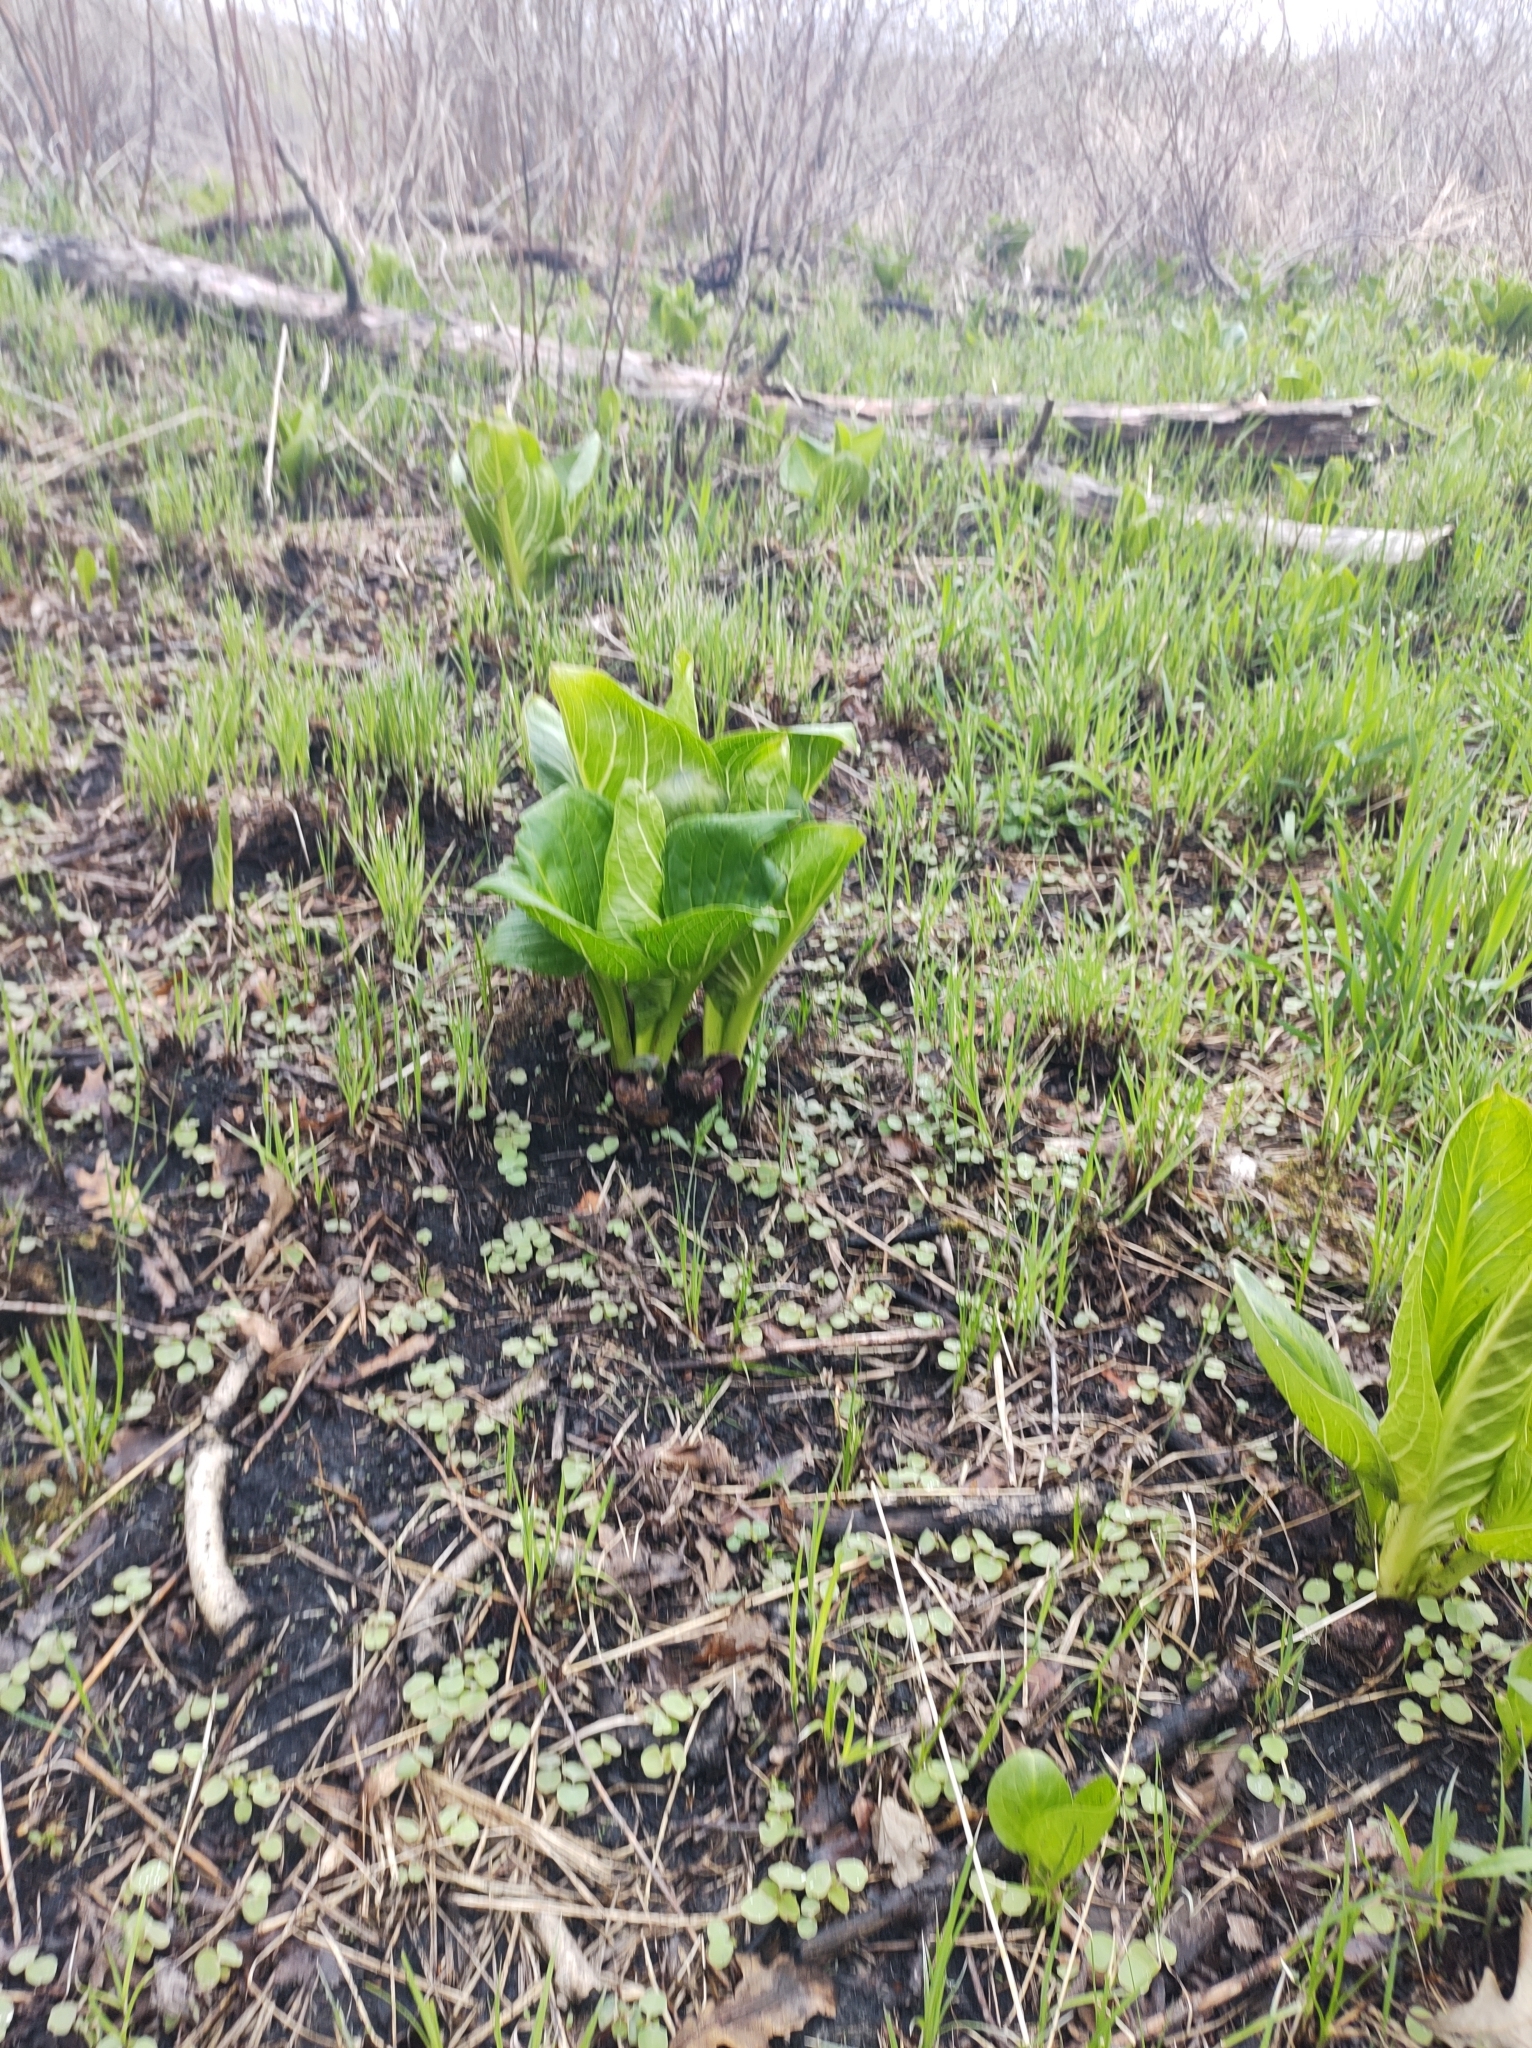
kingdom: Plantae
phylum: Tracheophyta
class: Liliopsida
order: Alismatales
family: Araceae
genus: Symplocarpus
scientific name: Symplocarpus foetidus
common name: Eastern skunk cabbage
